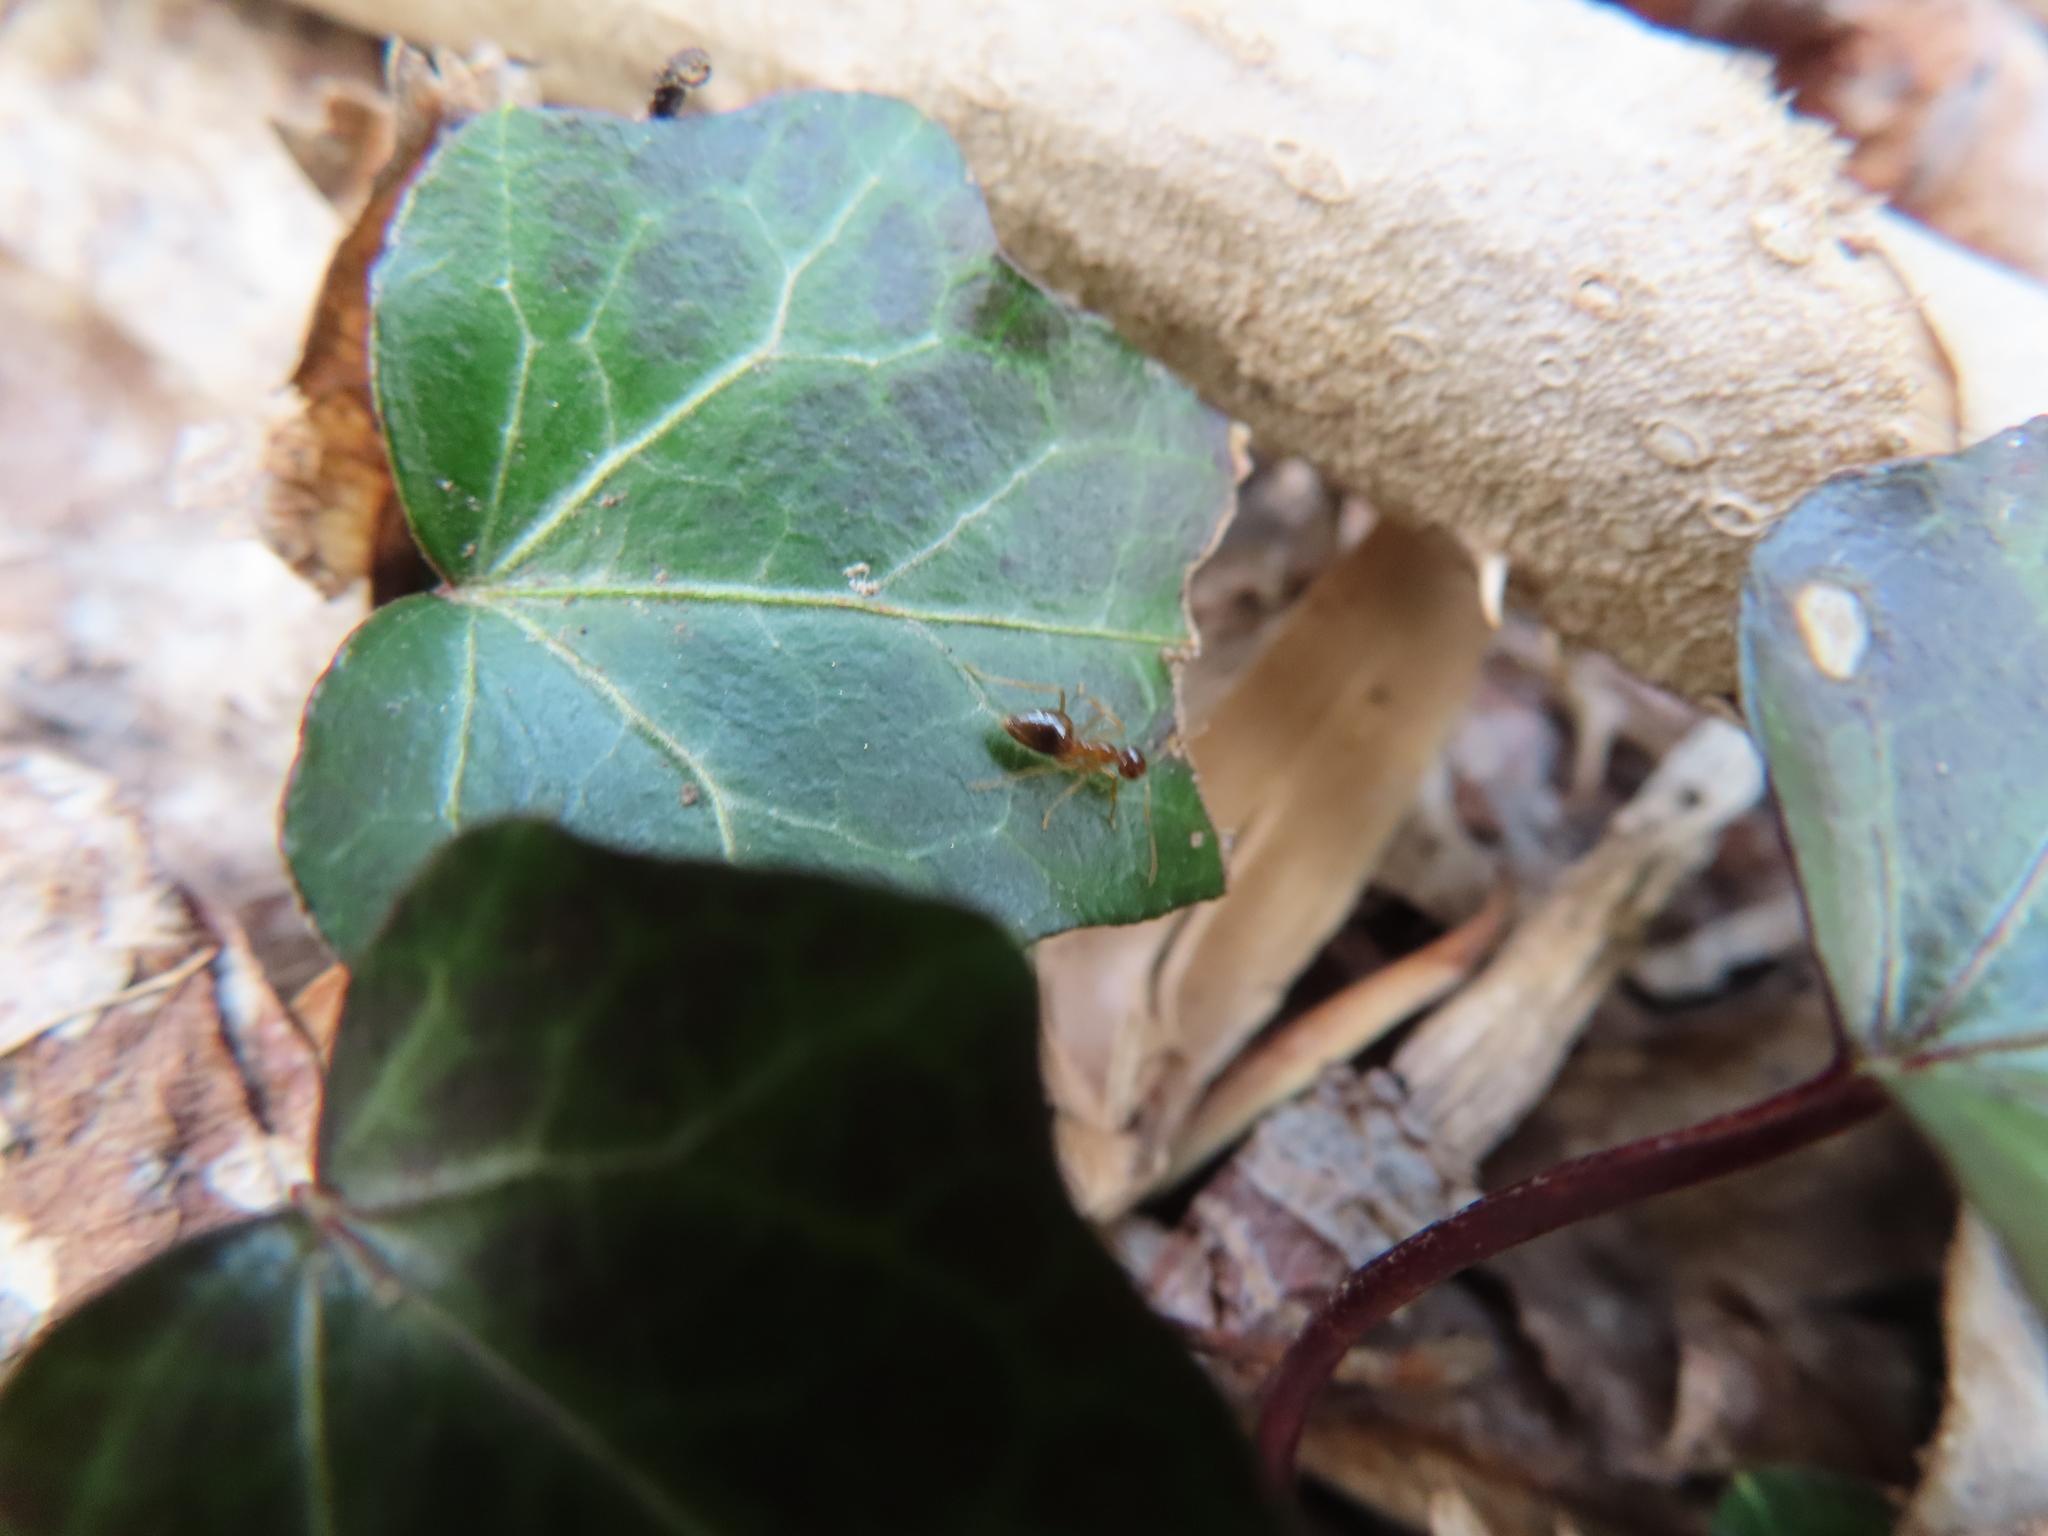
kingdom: Animalia
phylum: Arthropoda
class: Insecta
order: Hymenoptera
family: Formicidae
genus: Prenolepis
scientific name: Prenolepis imparis
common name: Small honey ant
